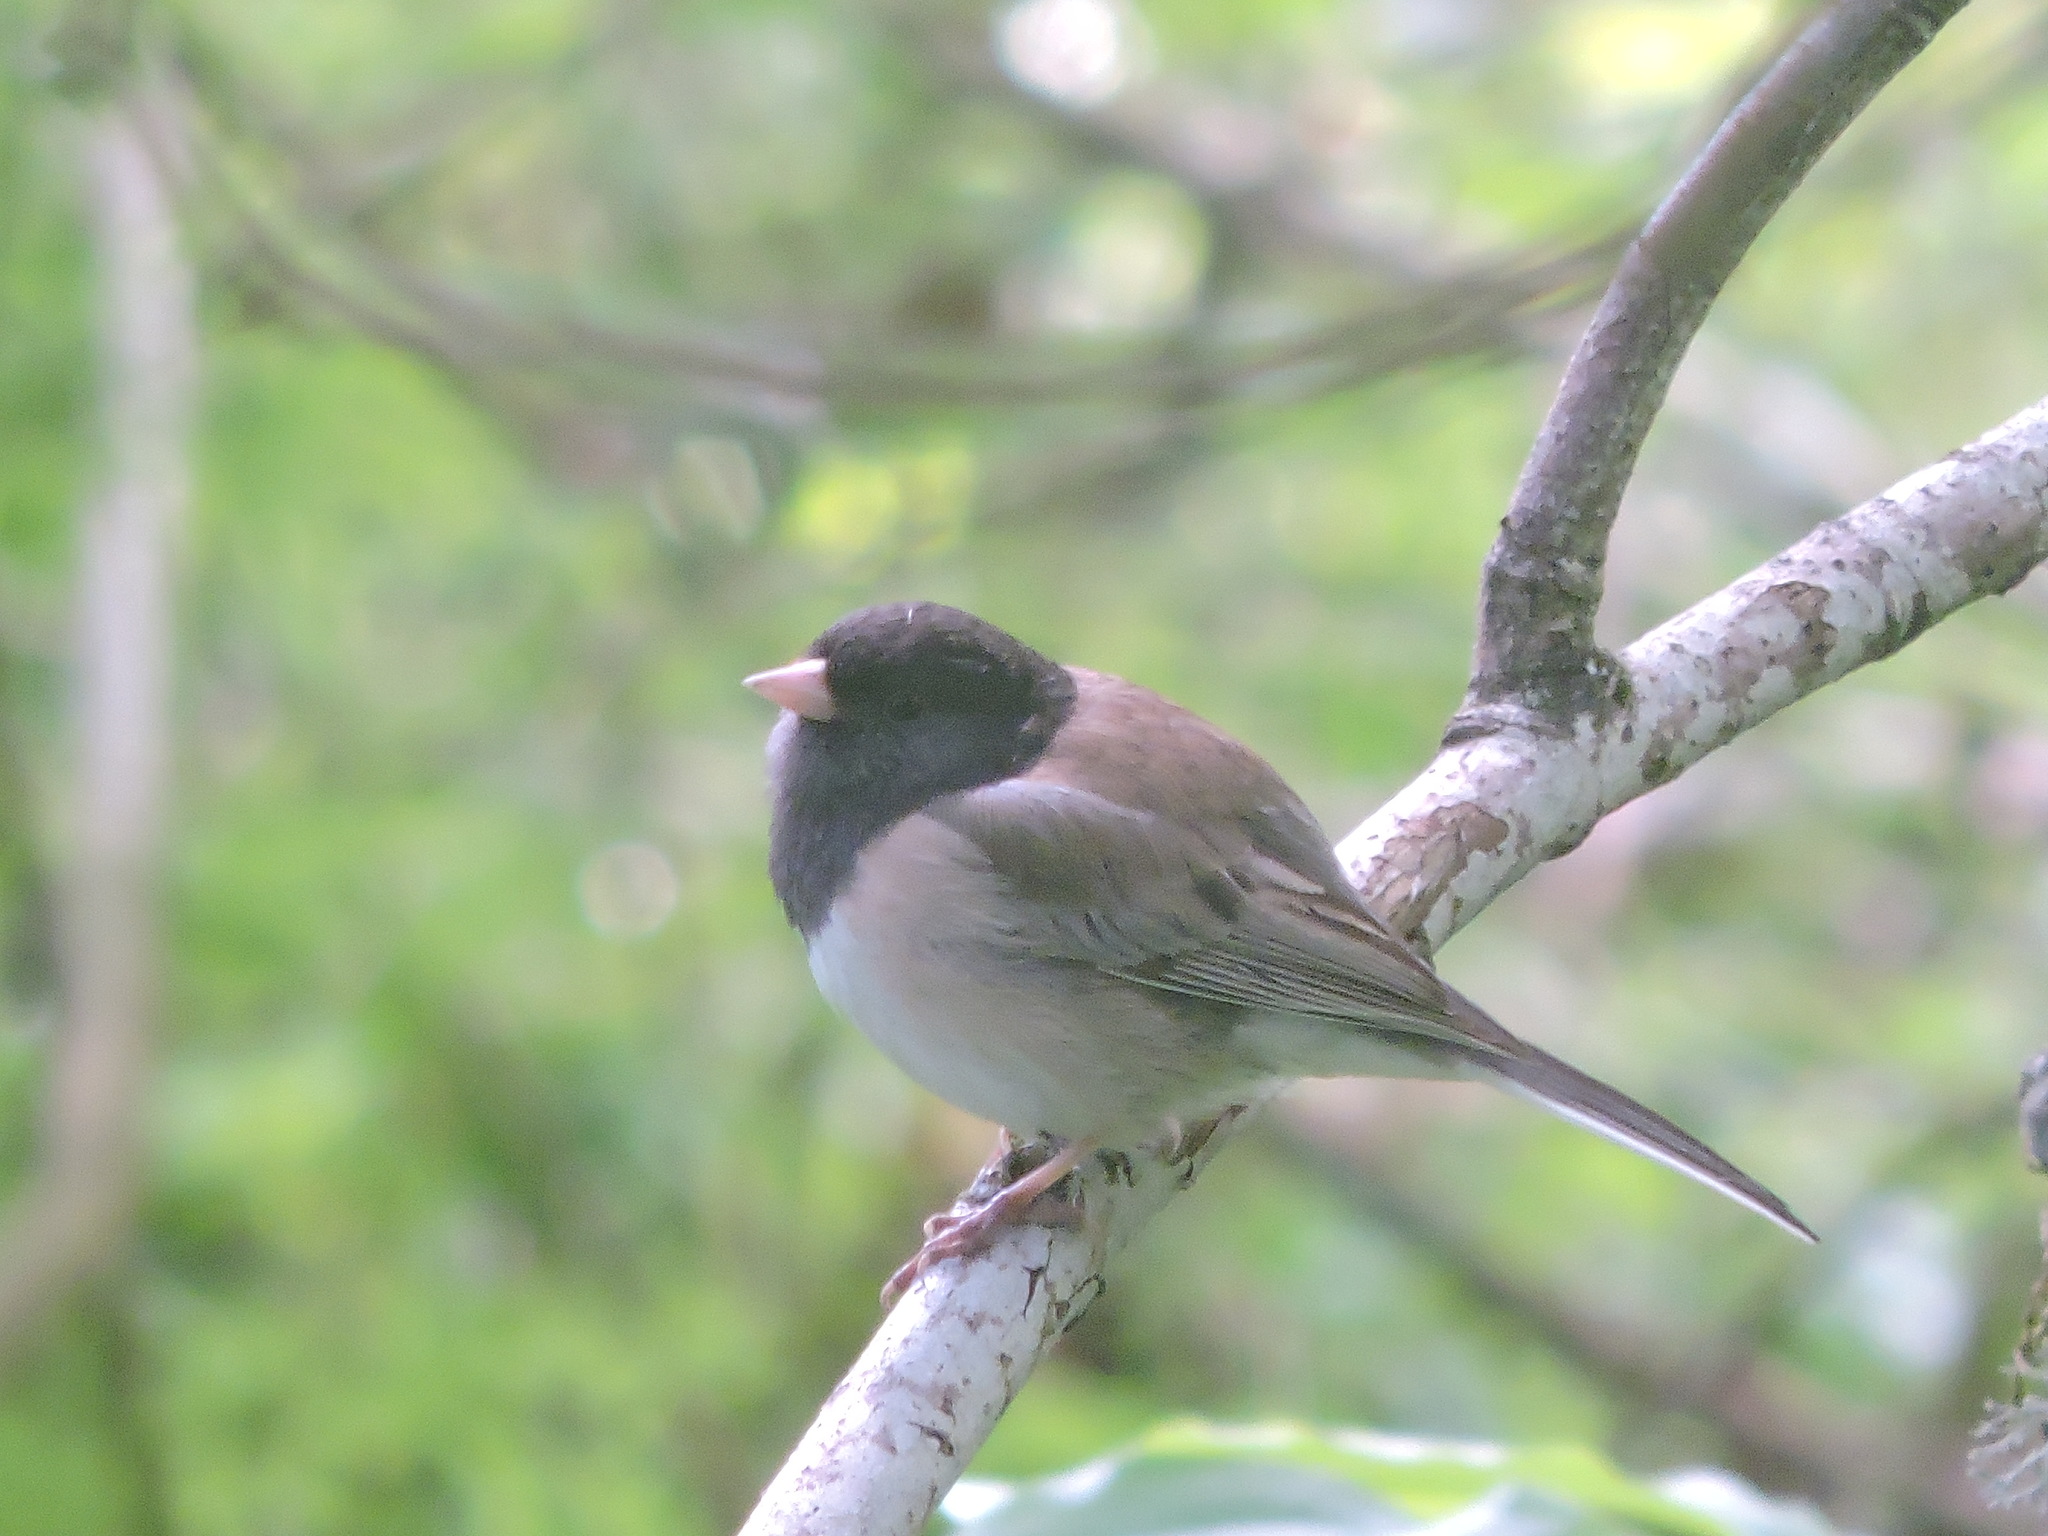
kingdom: Animalia
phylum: Chordata
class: Aves
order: Passeriformes
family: Passerellidae
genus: Junco
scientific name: Junco hyemalis
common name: Dark-eyed junco
